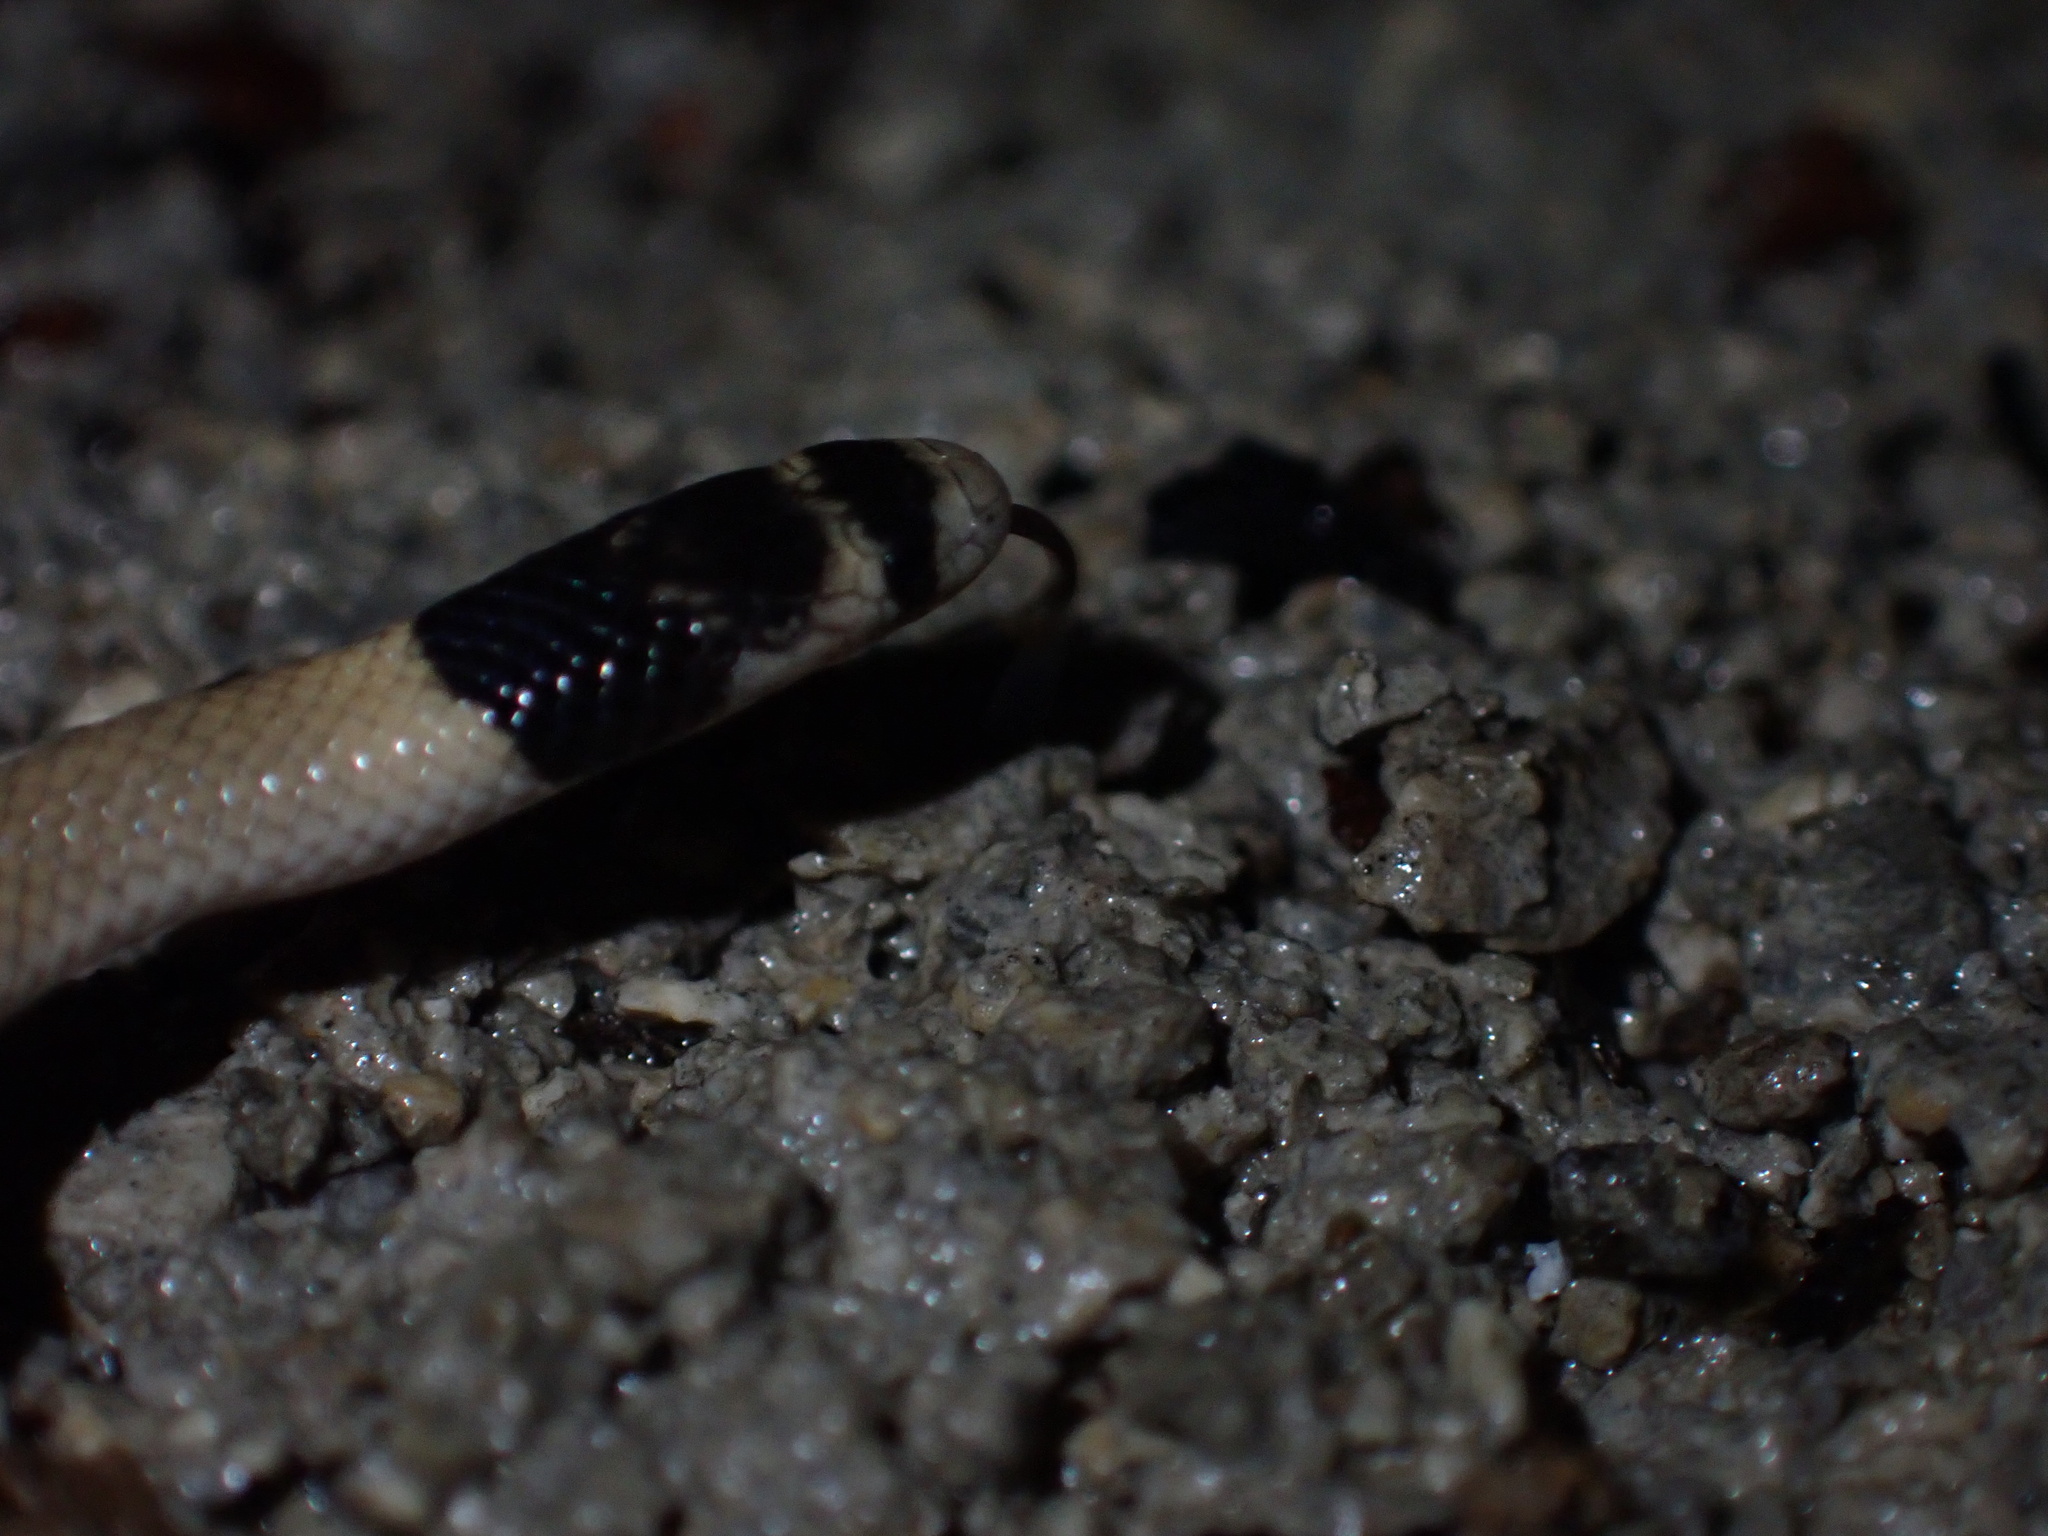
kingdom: Animalia
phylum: Chordata
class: Squamata
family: Colubridae
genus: Eirenis
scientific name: Eirenis persicus
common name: Dark-headed dwarf racer
